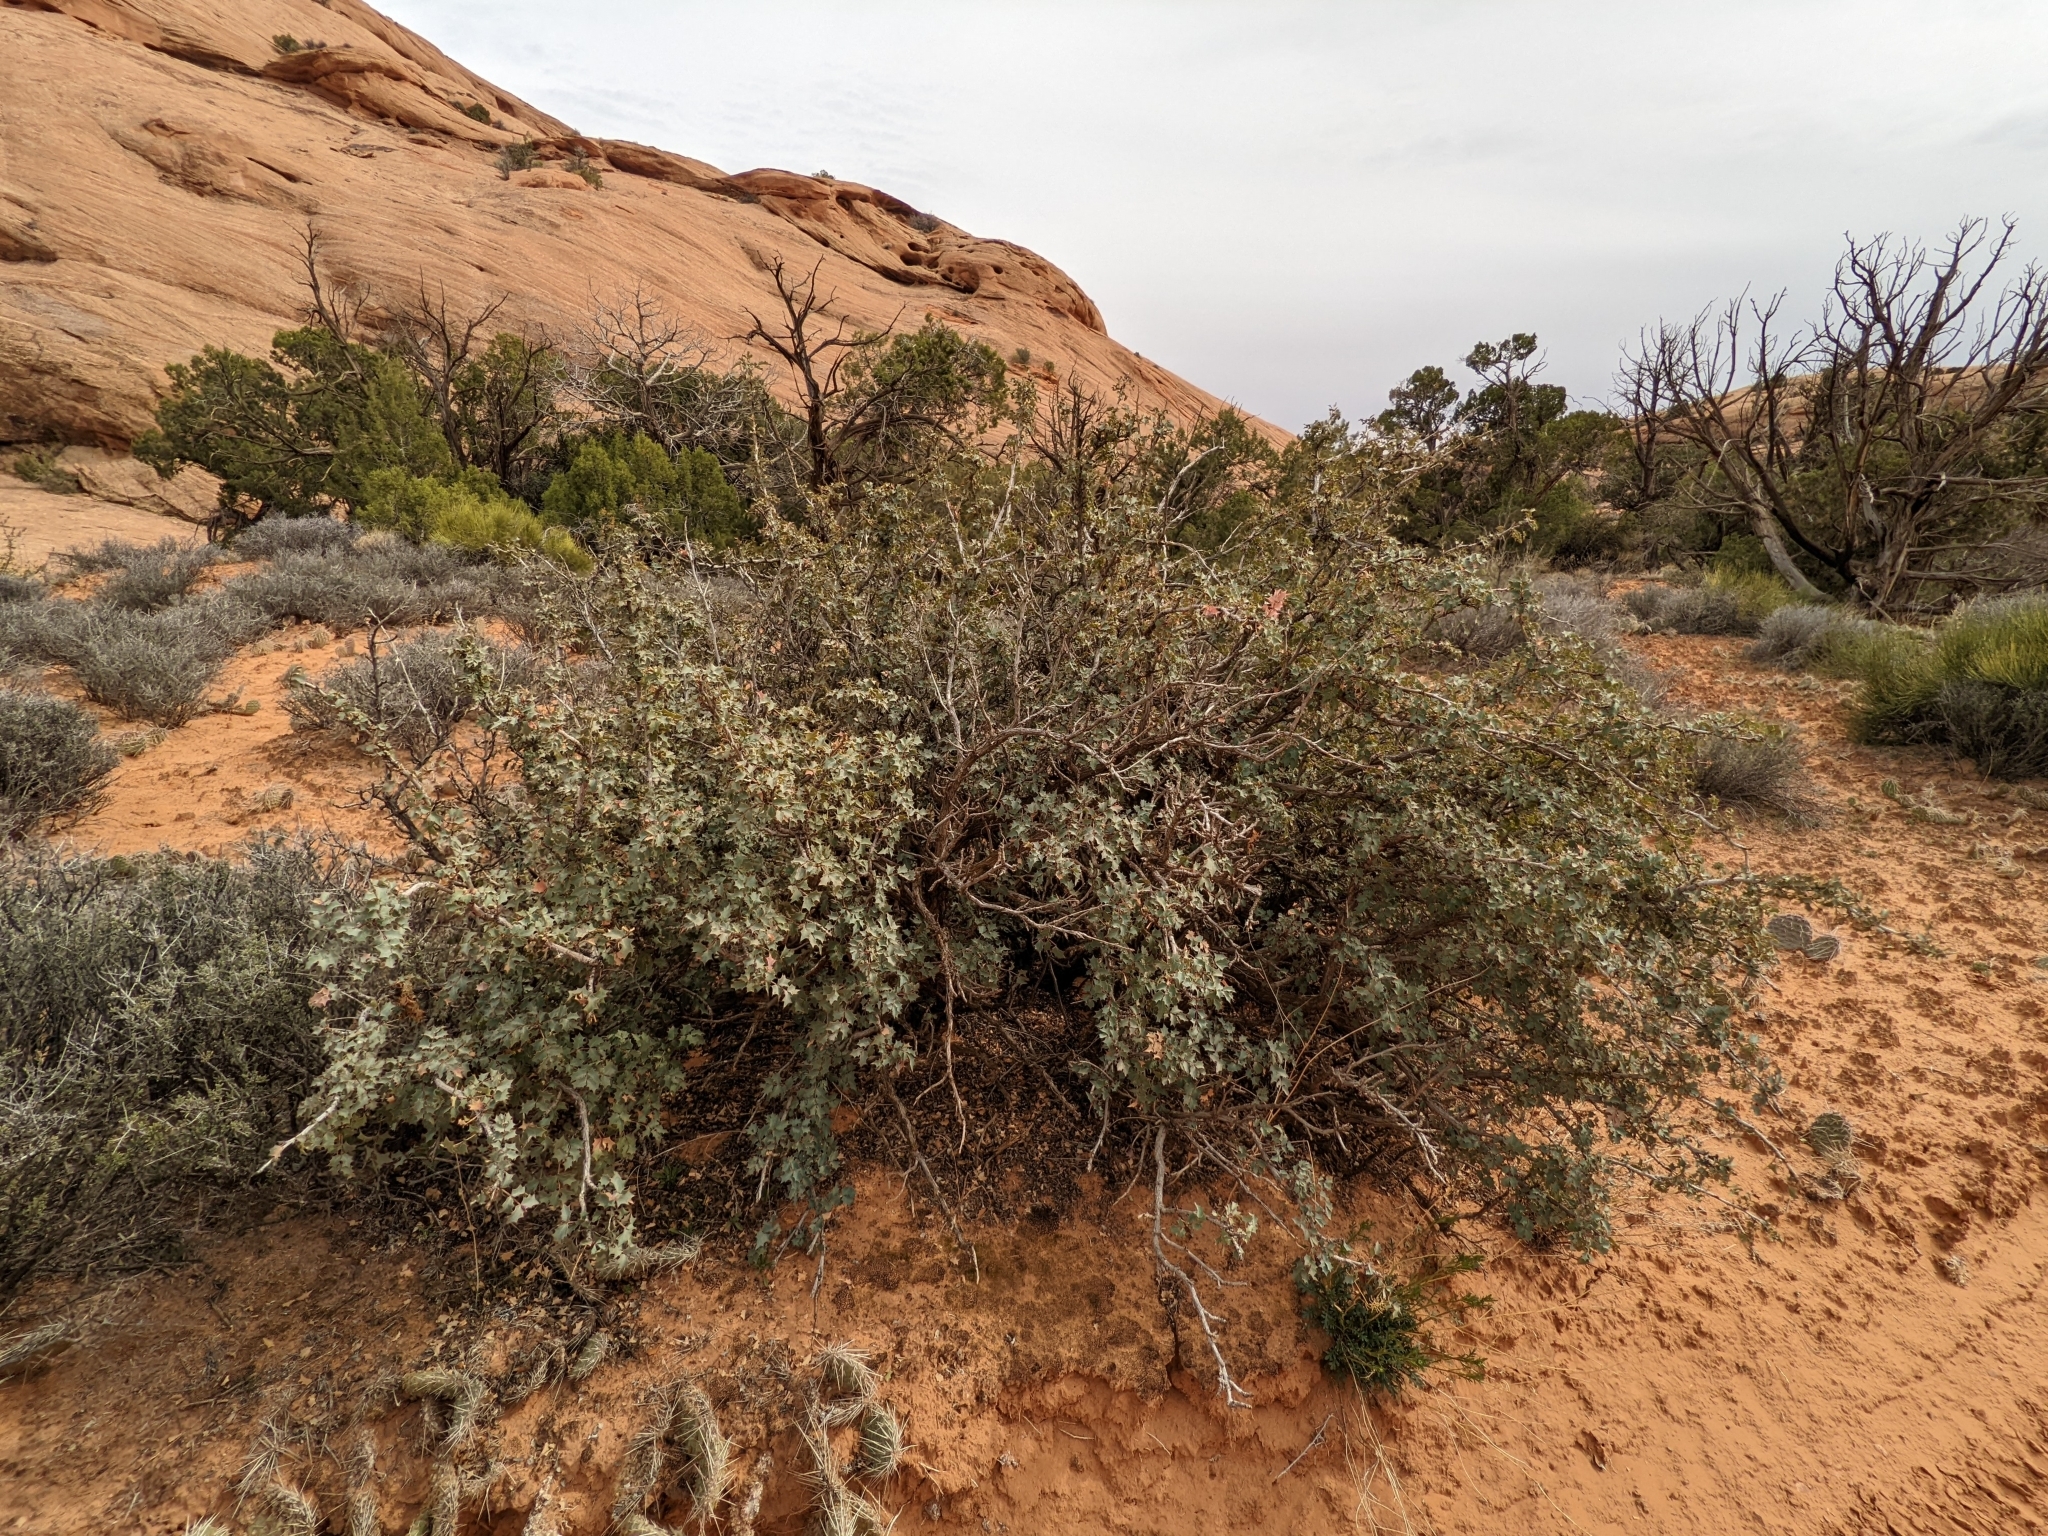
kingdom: Plantae
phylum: Tracheophyta
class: Magnoliopsida
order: Ranunculales
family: Berberidaceae
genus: Alloberberis
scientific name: Alloberberis fremontii
